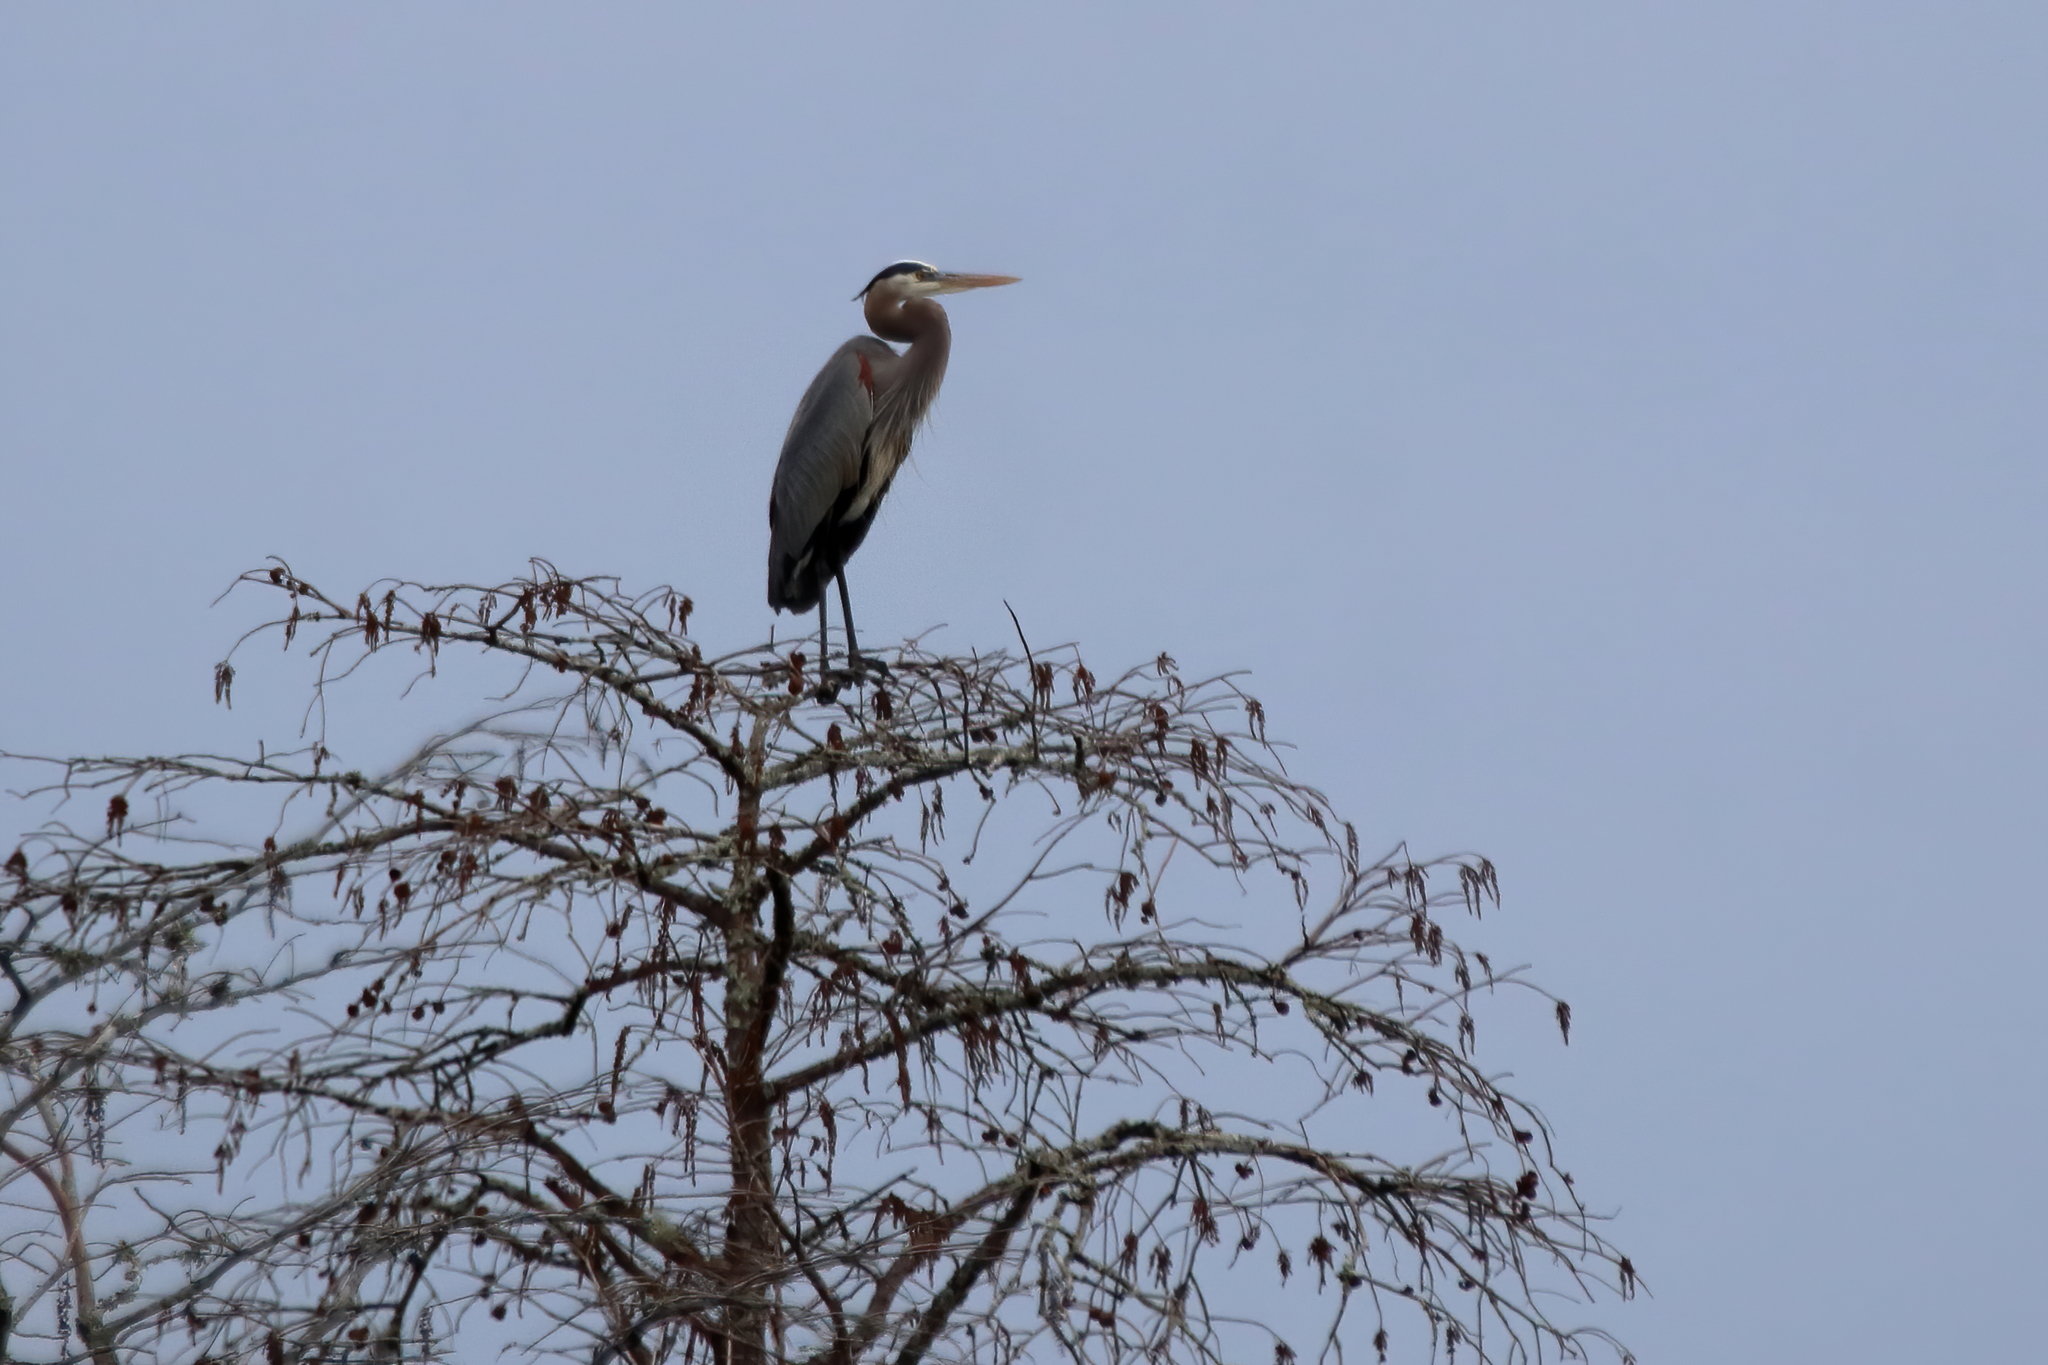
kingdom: Animalia
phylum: Chordata
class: Aves
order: Pelecaniformes
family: Ardeidae
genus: Ardea
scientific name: Ardea herodias
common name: Great blue heron
